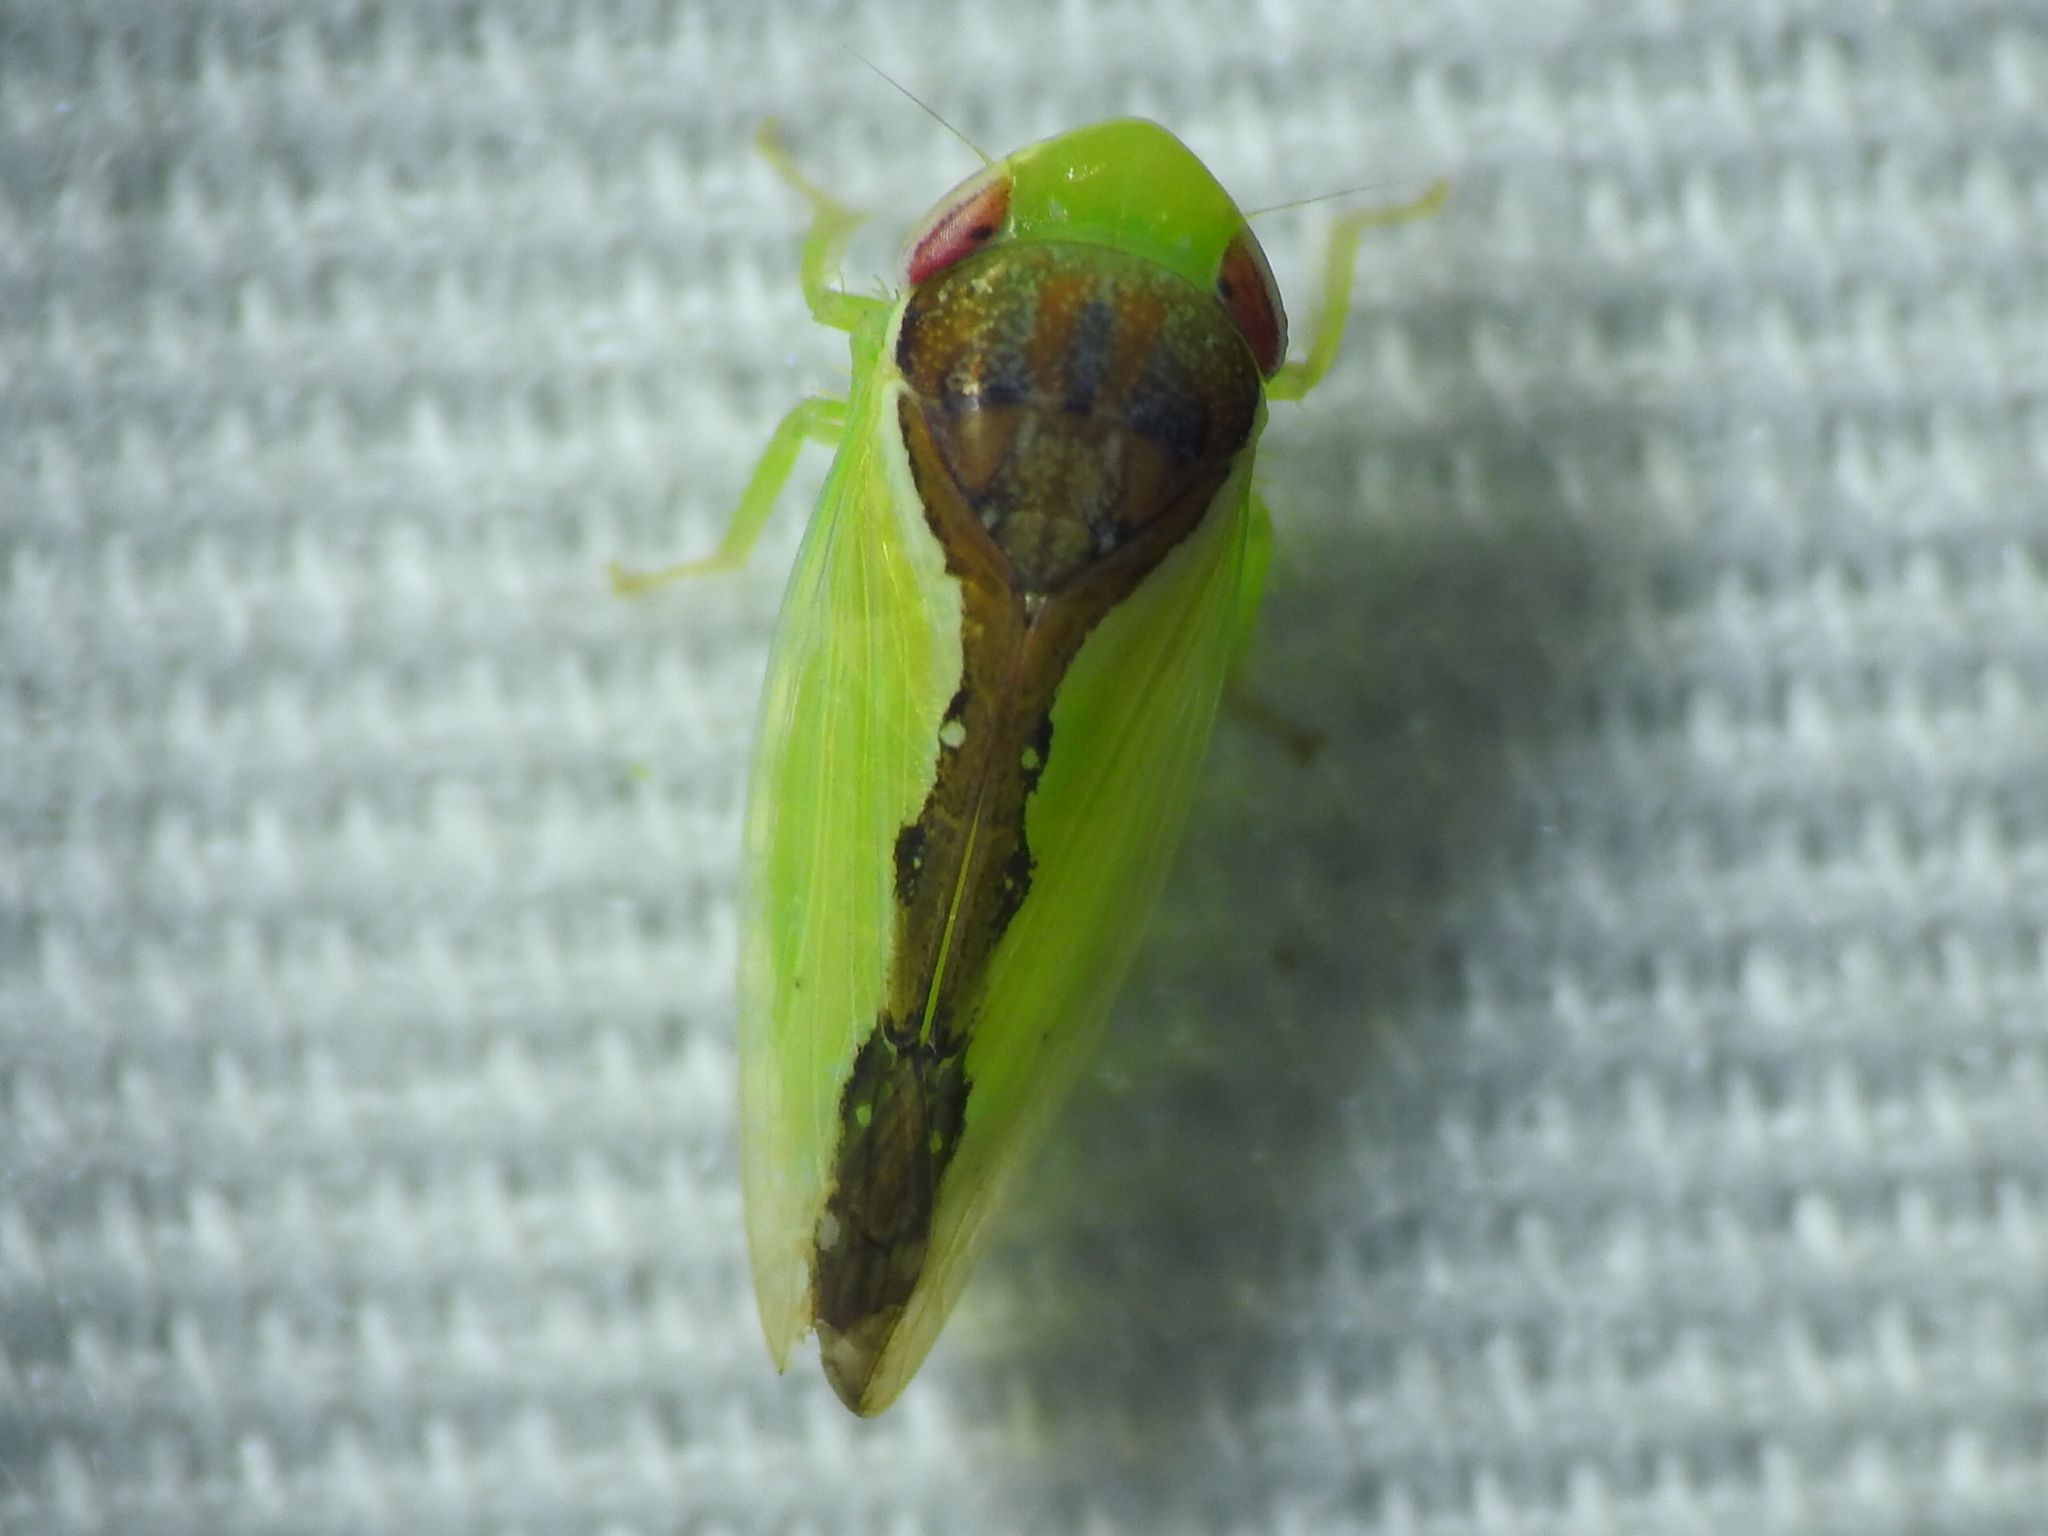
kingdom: Animalia
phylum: Arthropoda
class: Insecta
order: Hemiptera
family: Cicadellidae
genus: Omansobara ing
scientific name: Omansobara ing Omansobara palliolata
